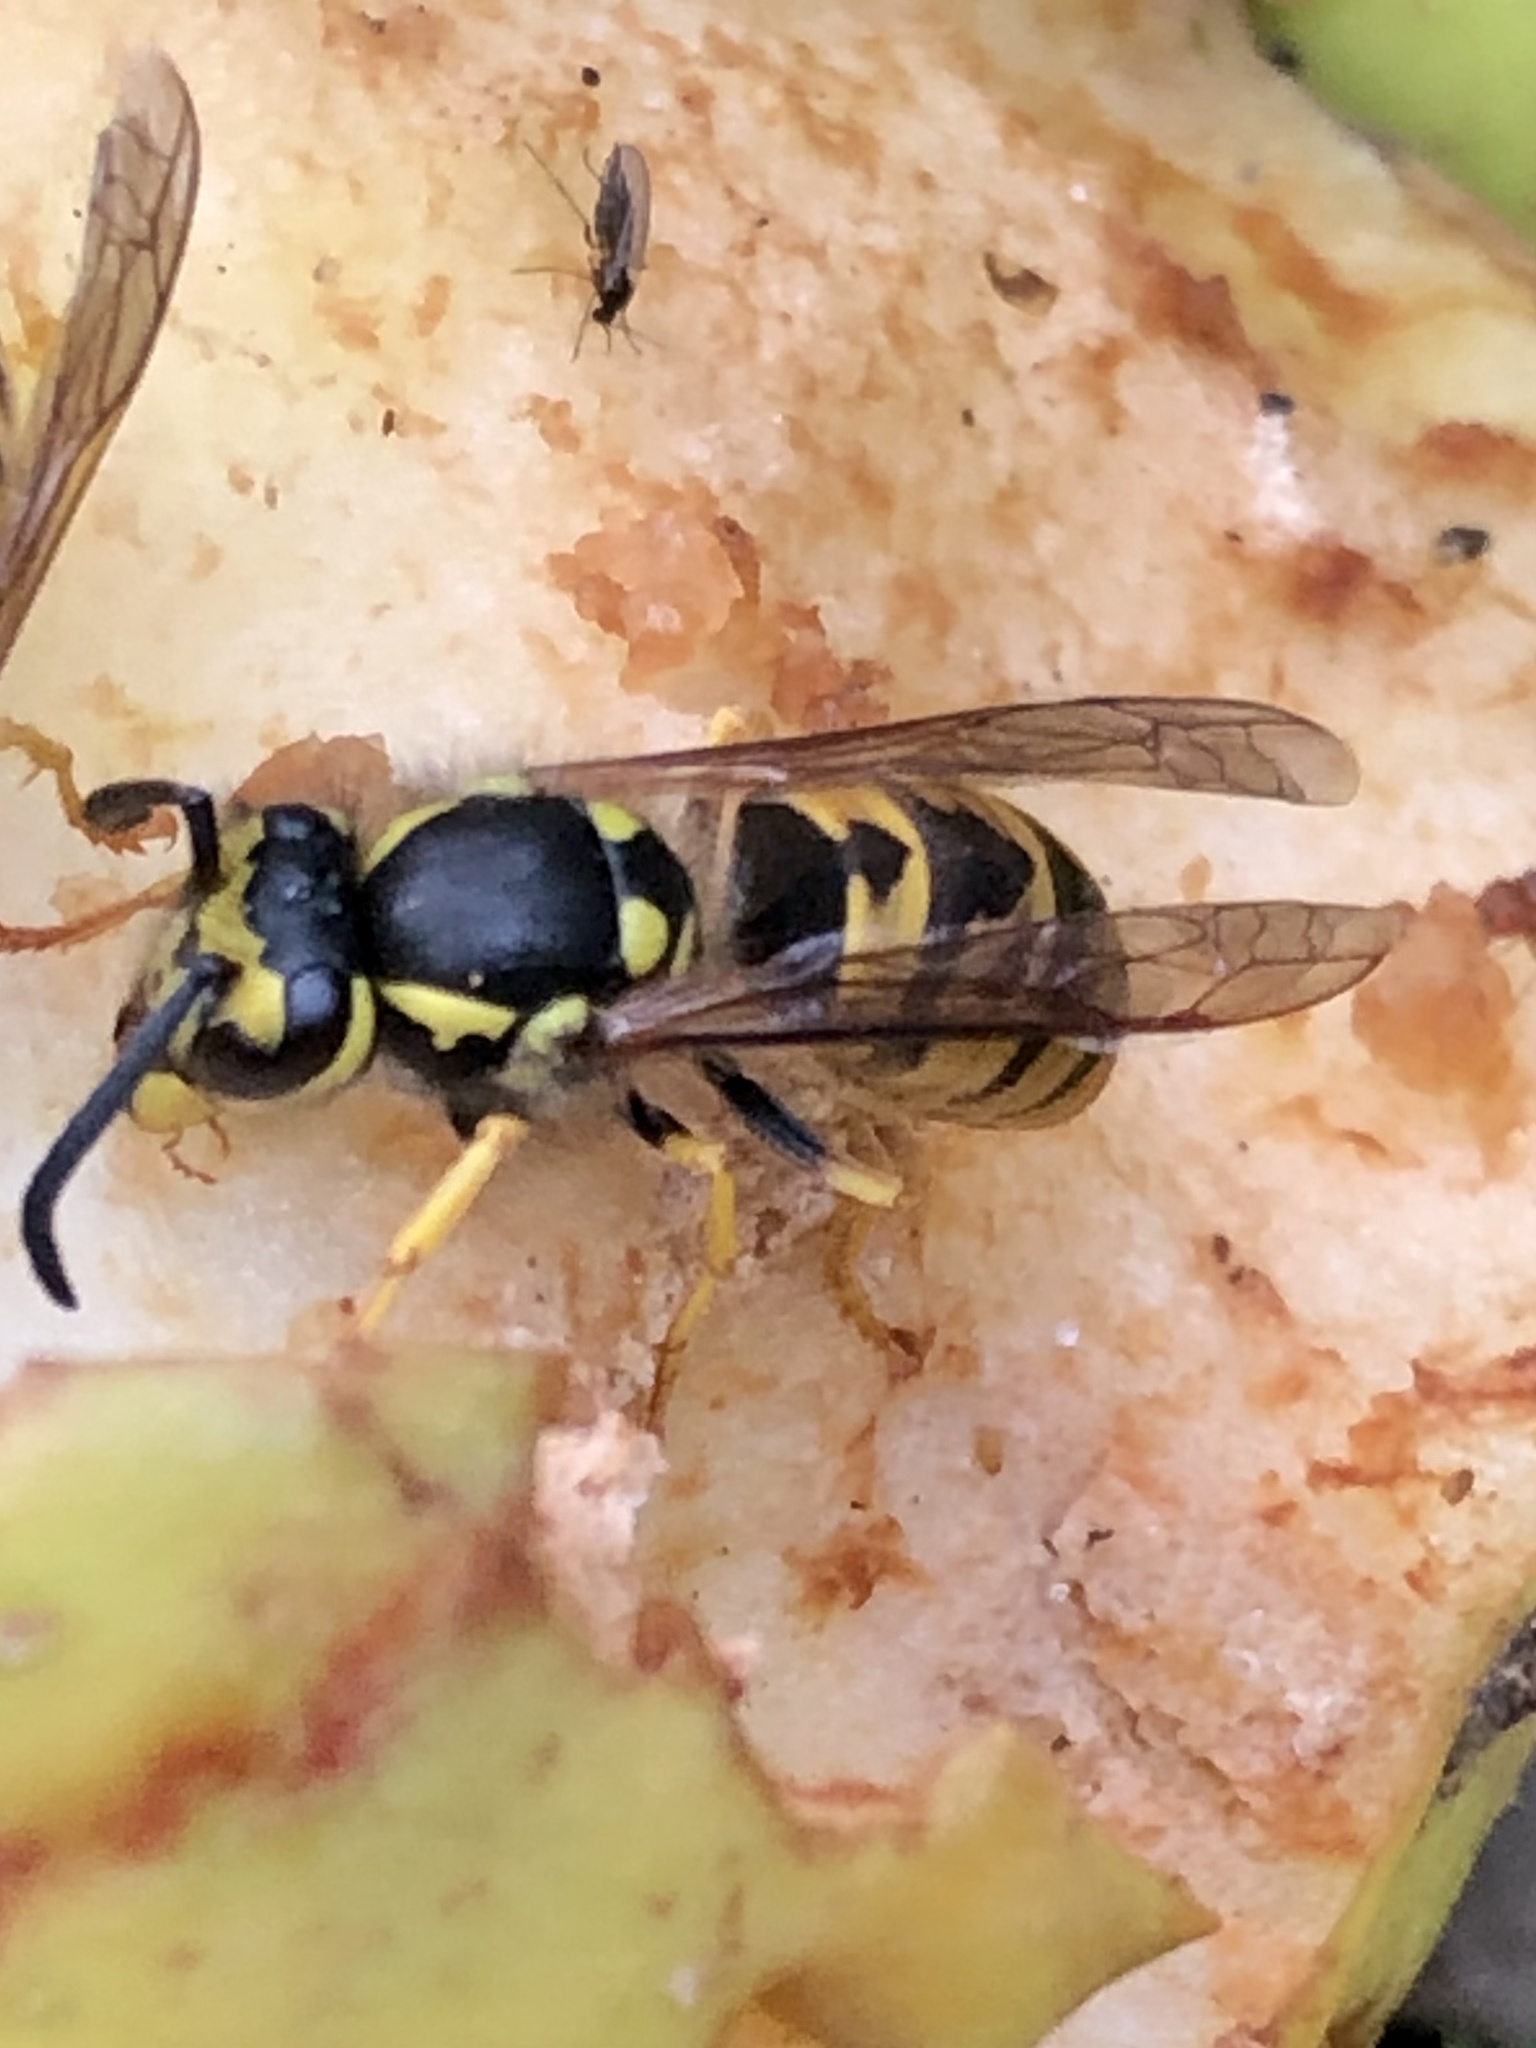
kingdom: Animalia
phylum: Arthropoda
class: Insecta
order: Hymenoptera
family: Vespidae
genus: Vespula
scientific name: Vespula germanica
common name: German wasp
